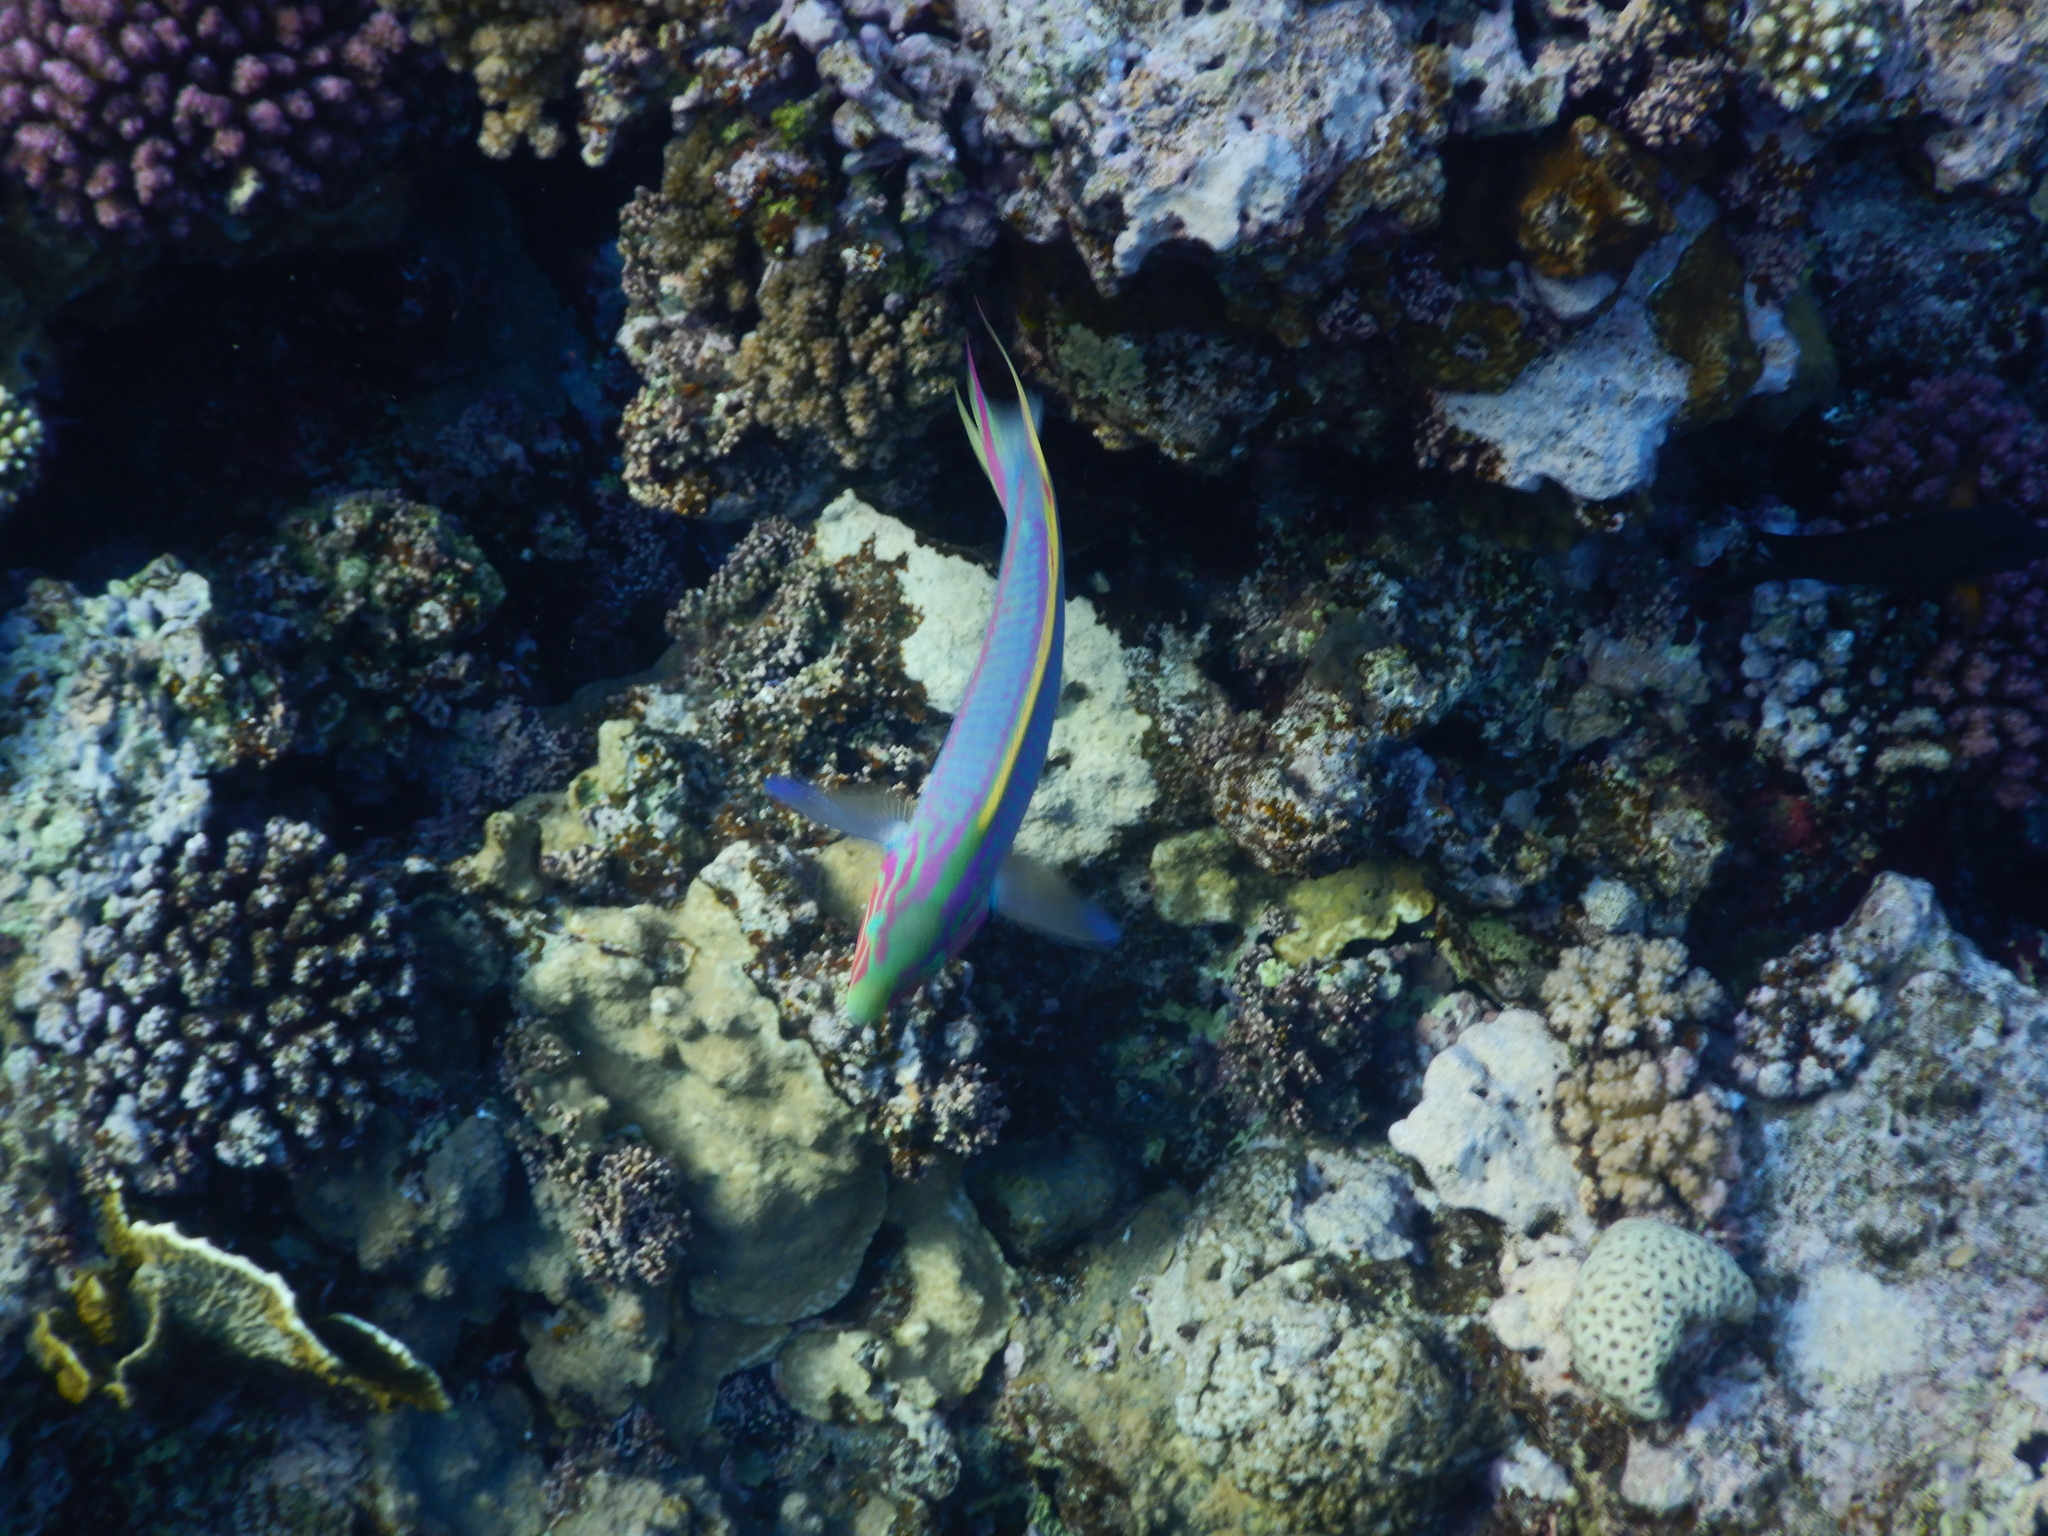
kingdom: Animalia
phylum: Chordata
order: Perciformes
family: Labridae
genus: Thalassoma
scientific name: Thalassoma rueppellii
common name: Klunzinger's wrasse
